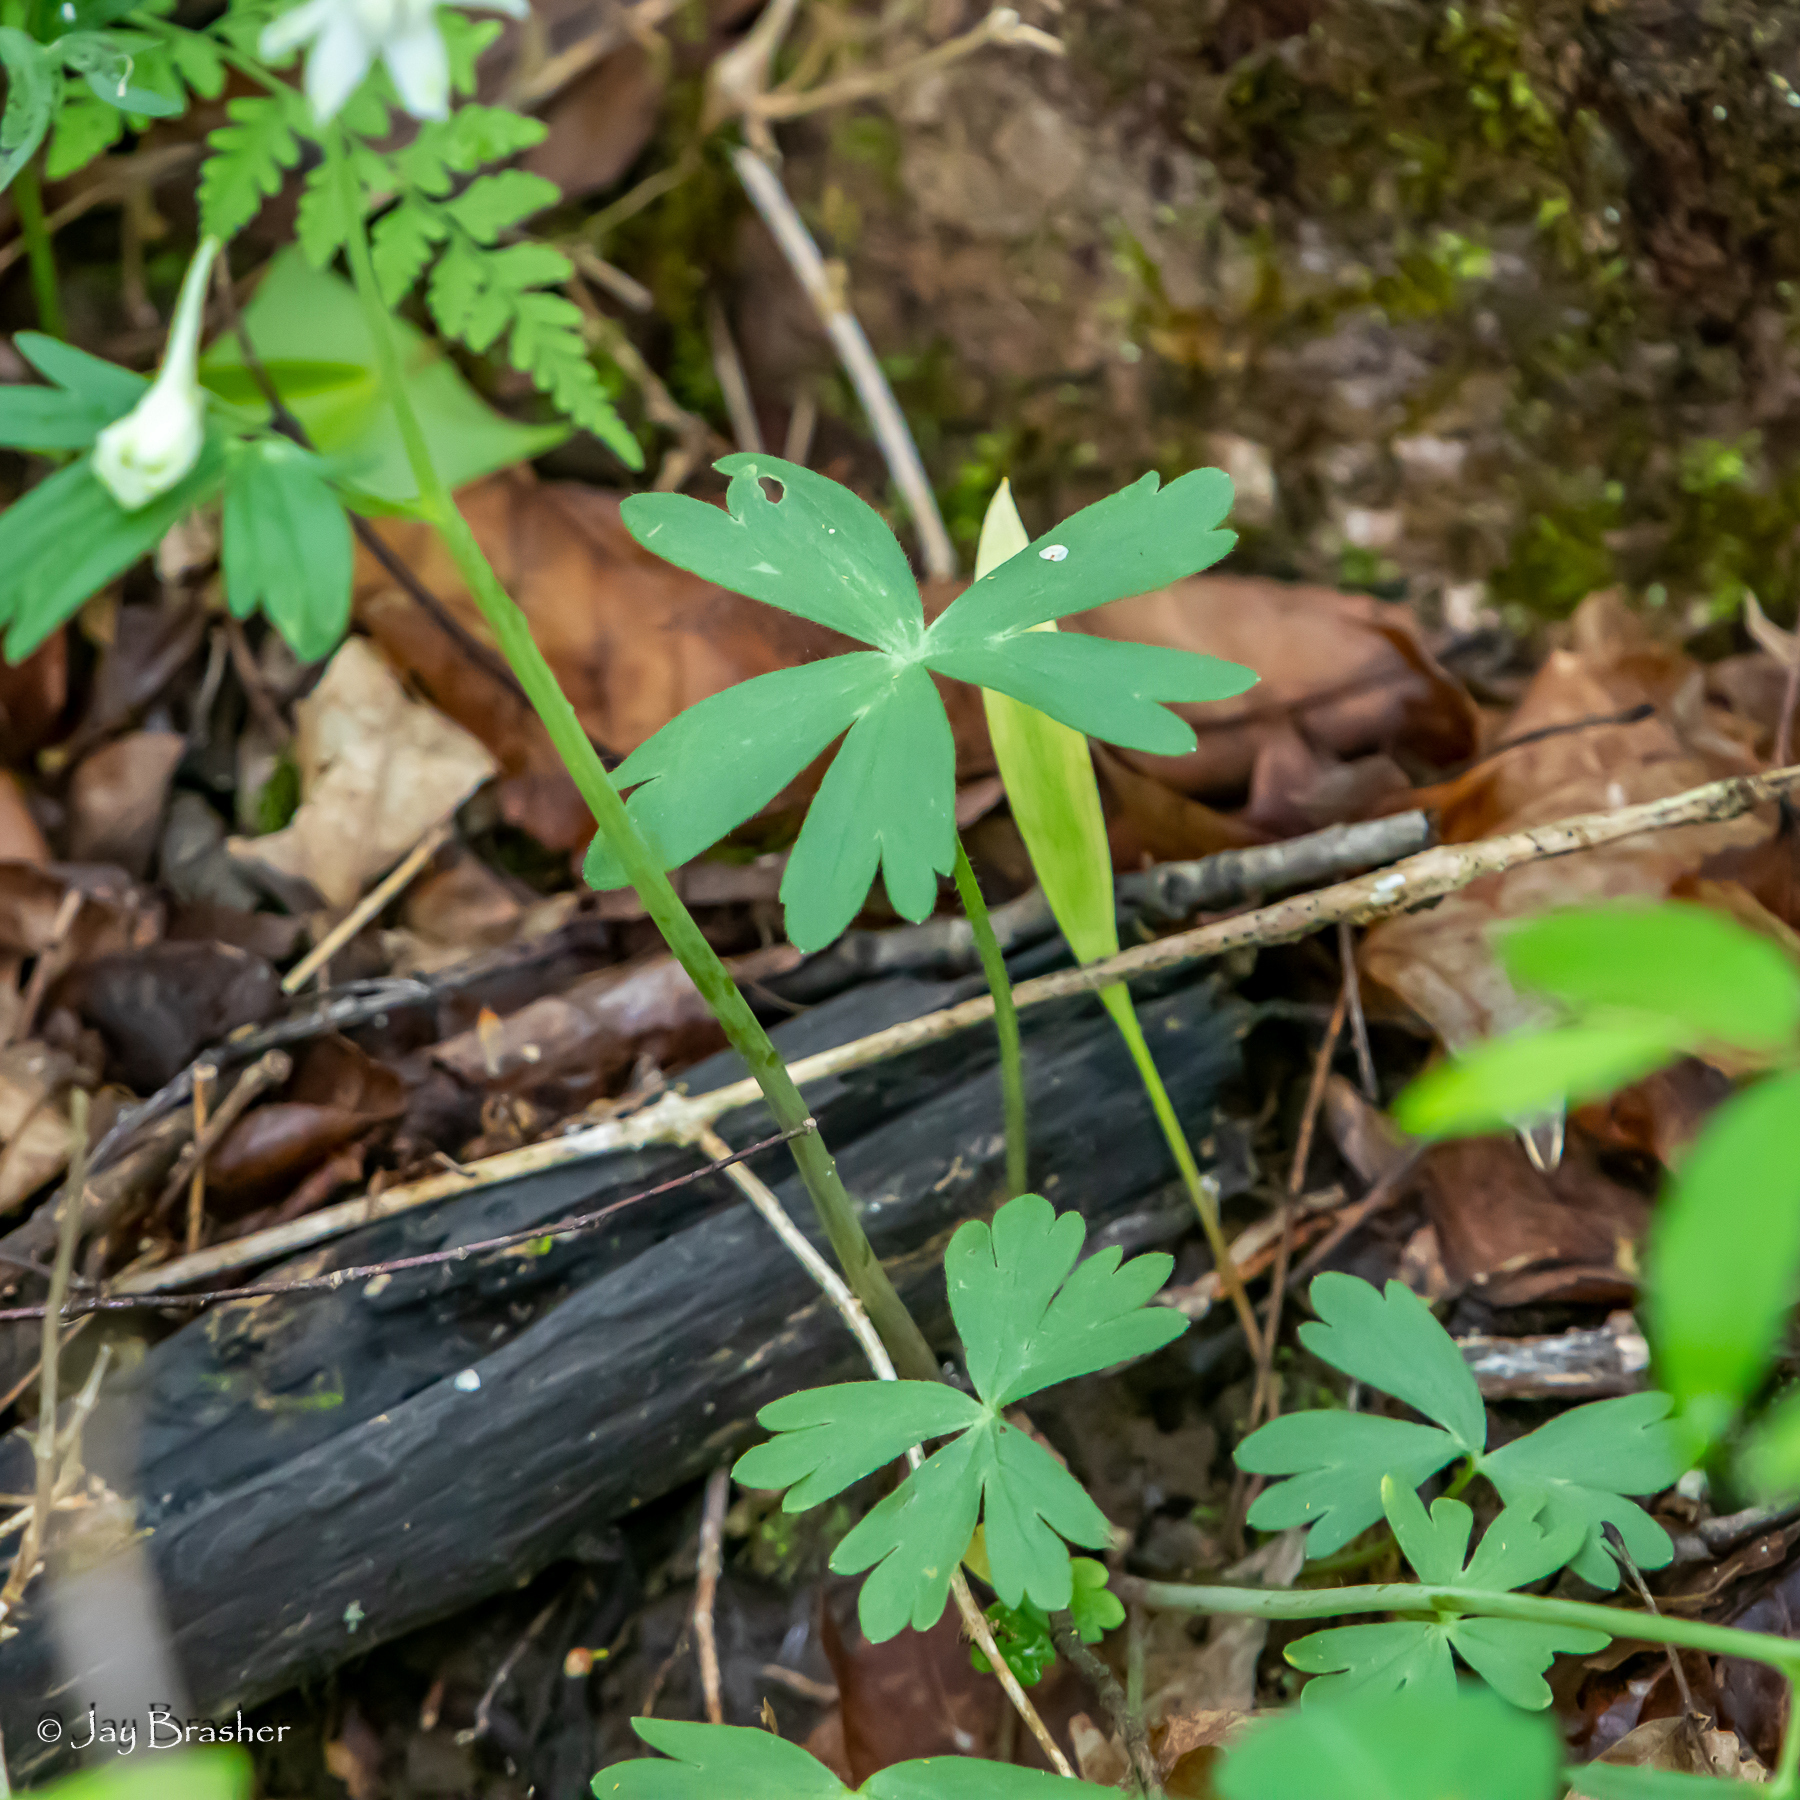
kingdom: Plantae
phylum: Tracheophyta
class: Magnoliopsida
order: Ranunculales
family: Ranunculaceae
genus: Delphinium
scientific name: Delphinium tricorne
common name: Dwarf larkspur
